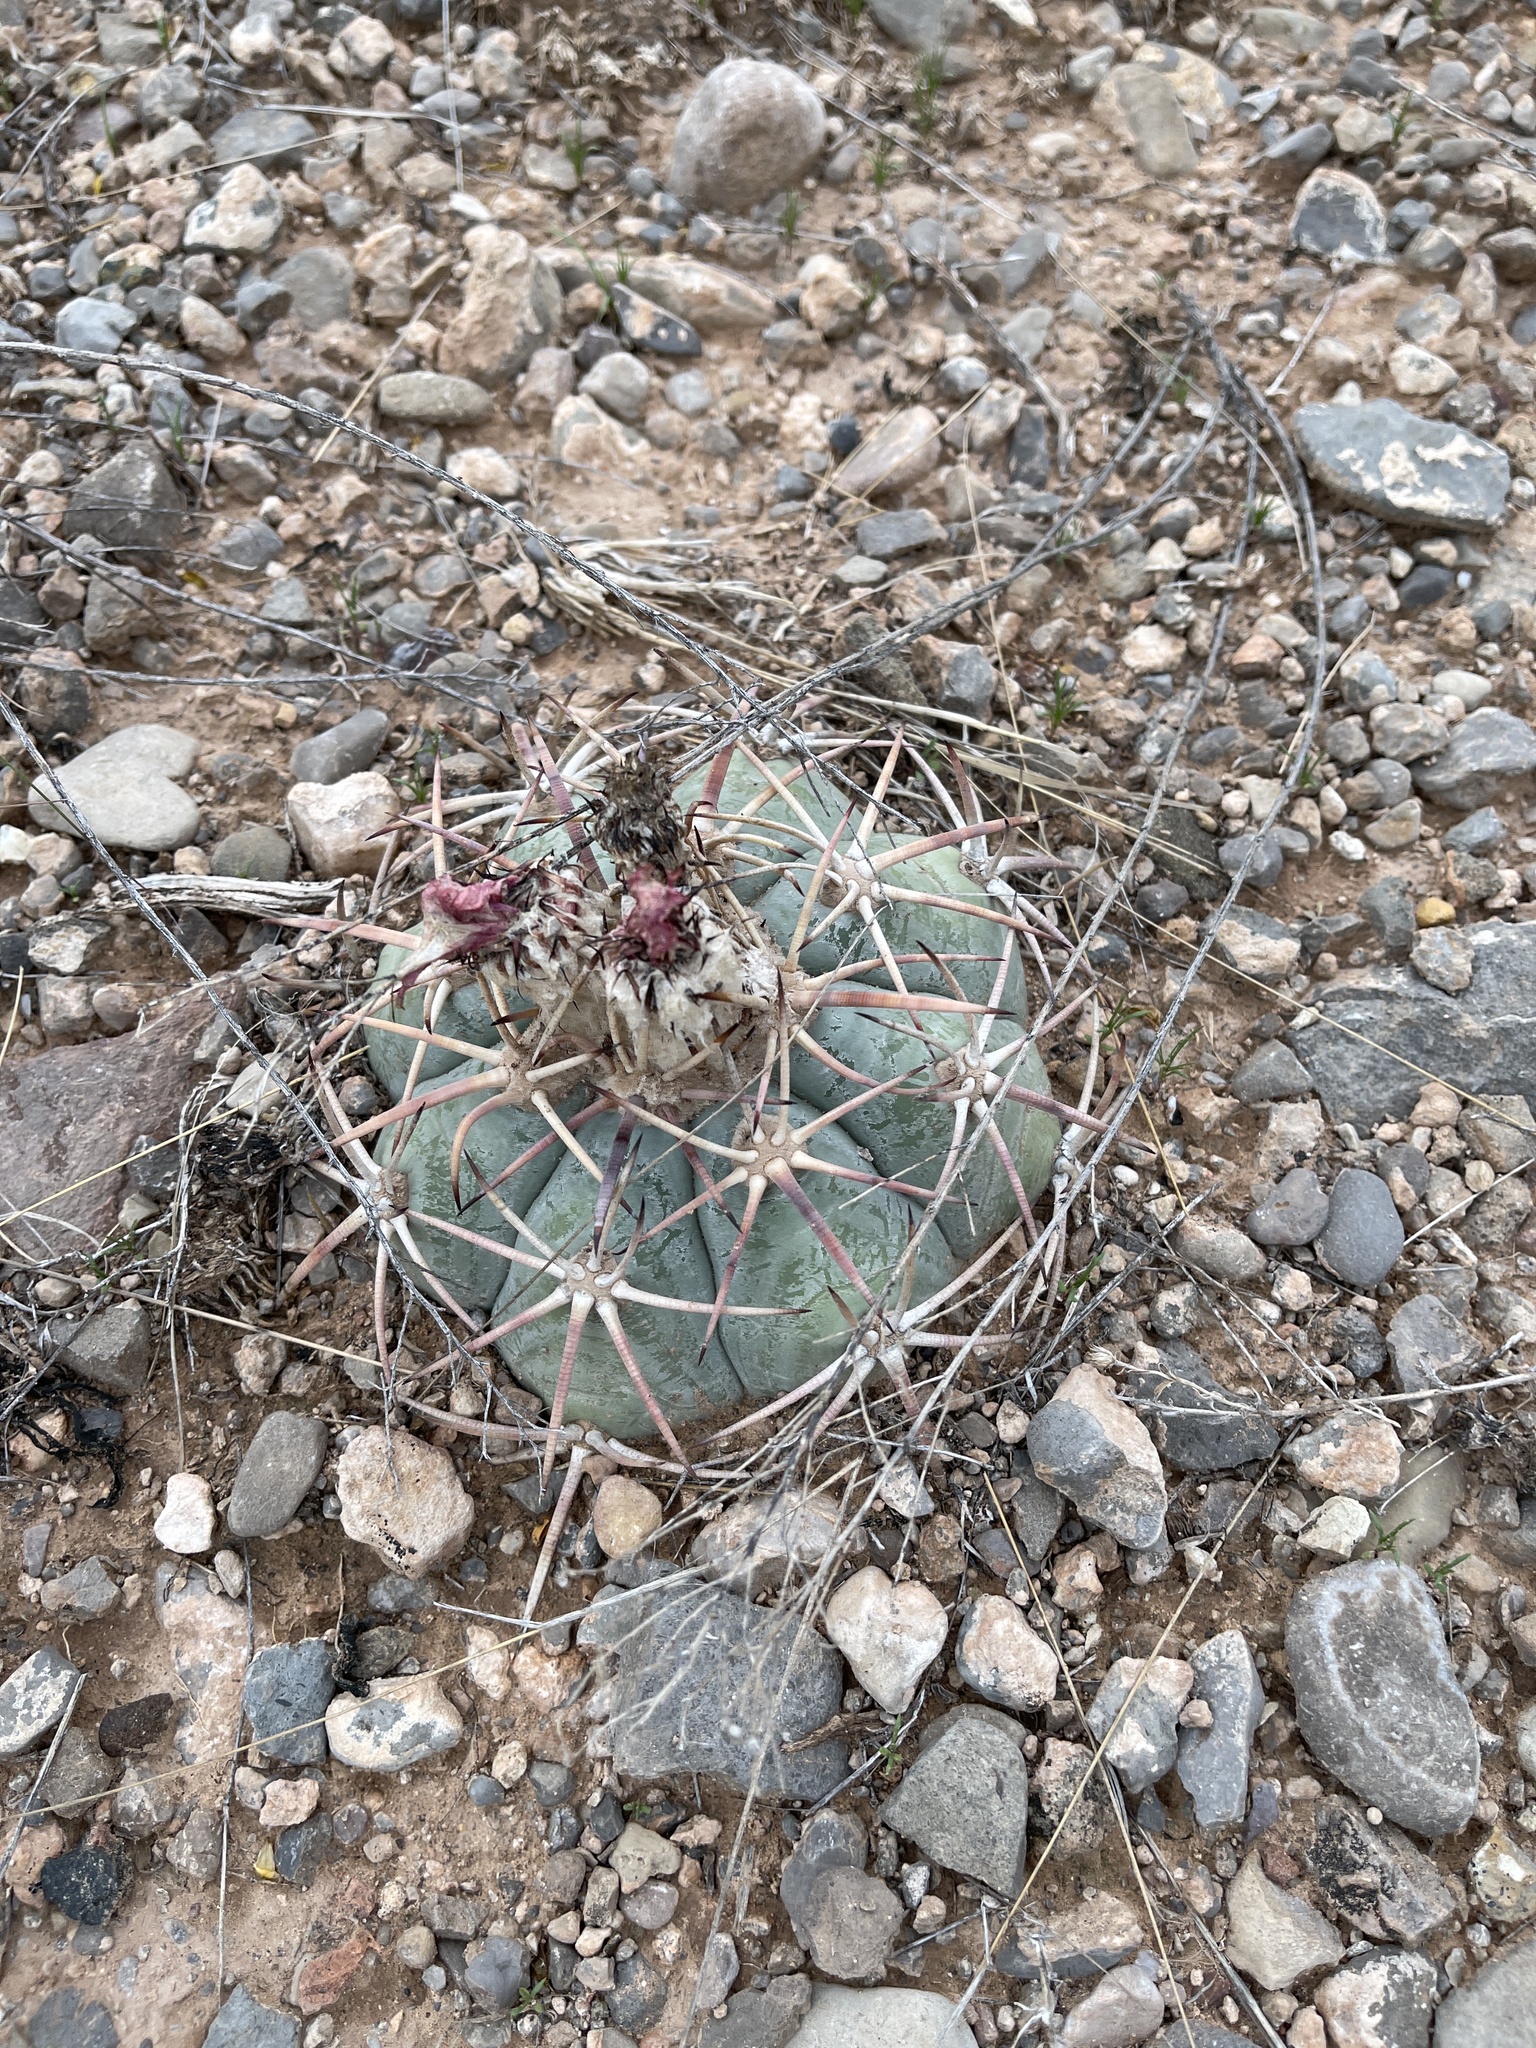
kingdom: Plantae
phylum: Tracheophyta
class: Magnoliopsida
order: Caryophyllales
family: Cactaceae
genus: Echinocactus
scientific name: Echinocactus horizonthalonius
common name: Devilshead
